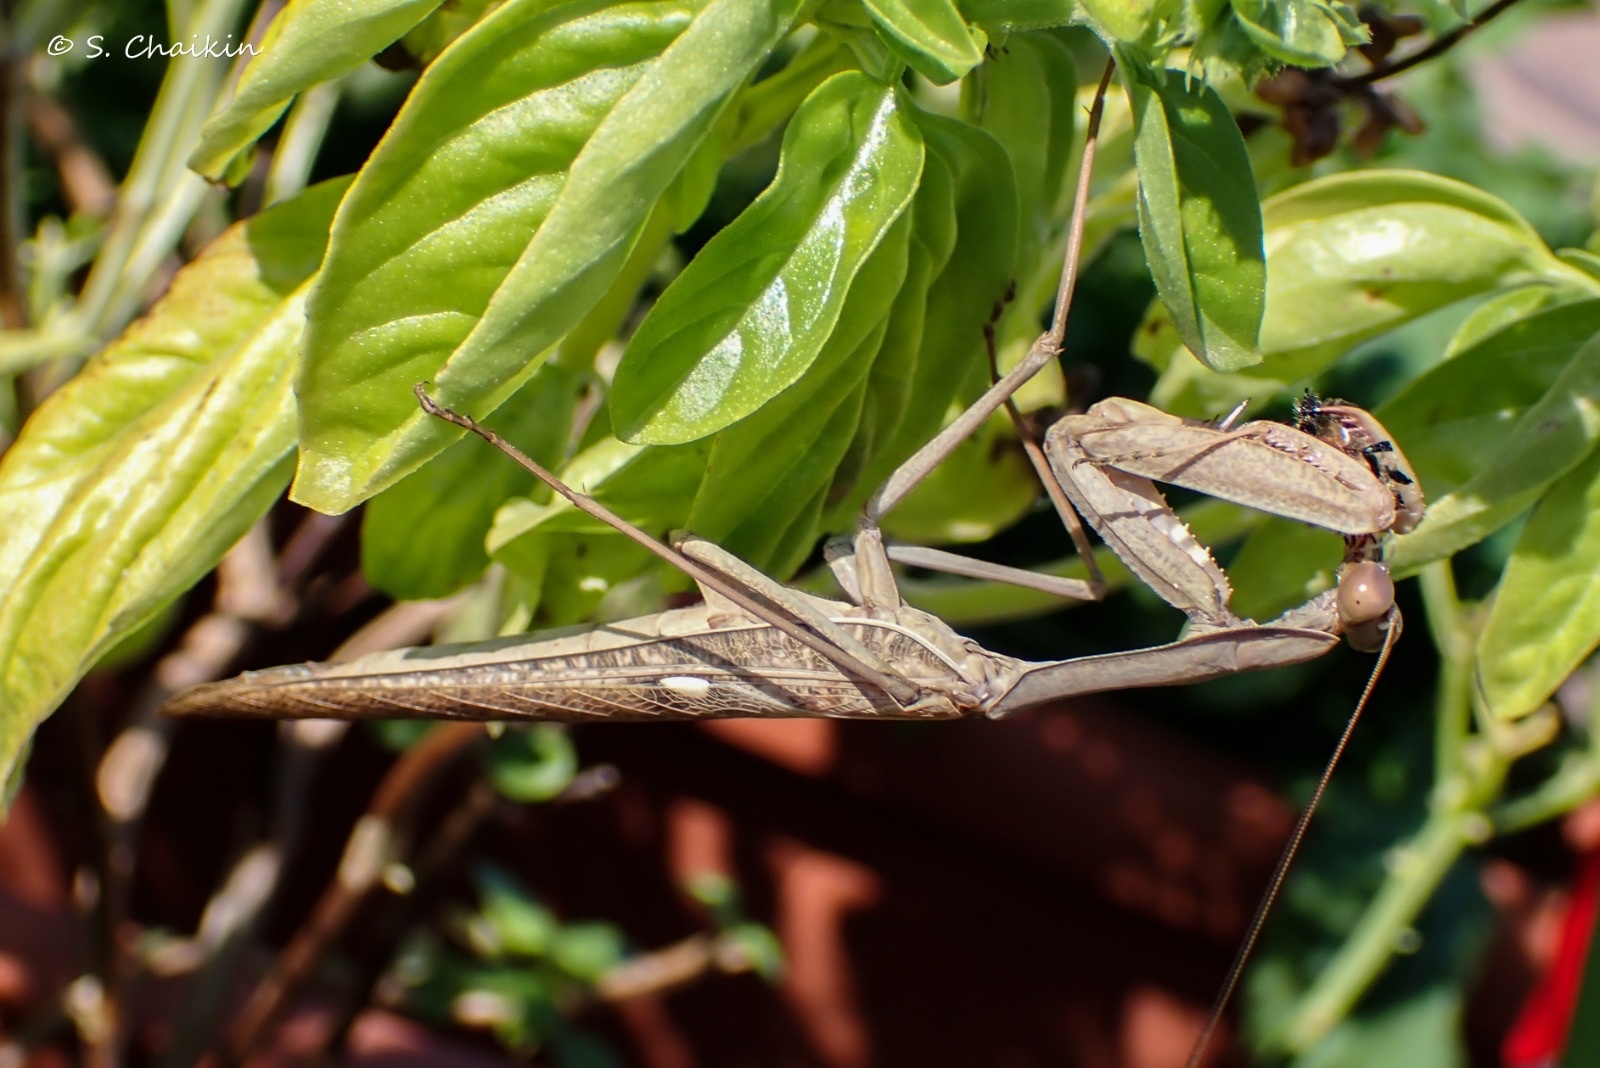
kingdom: Animalia
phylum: Arthropoda
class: Insecta
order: Mantodea
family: Mantidae
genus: Sphodromantis
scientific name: Sphodromantis viridis
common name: Giant african mantis
